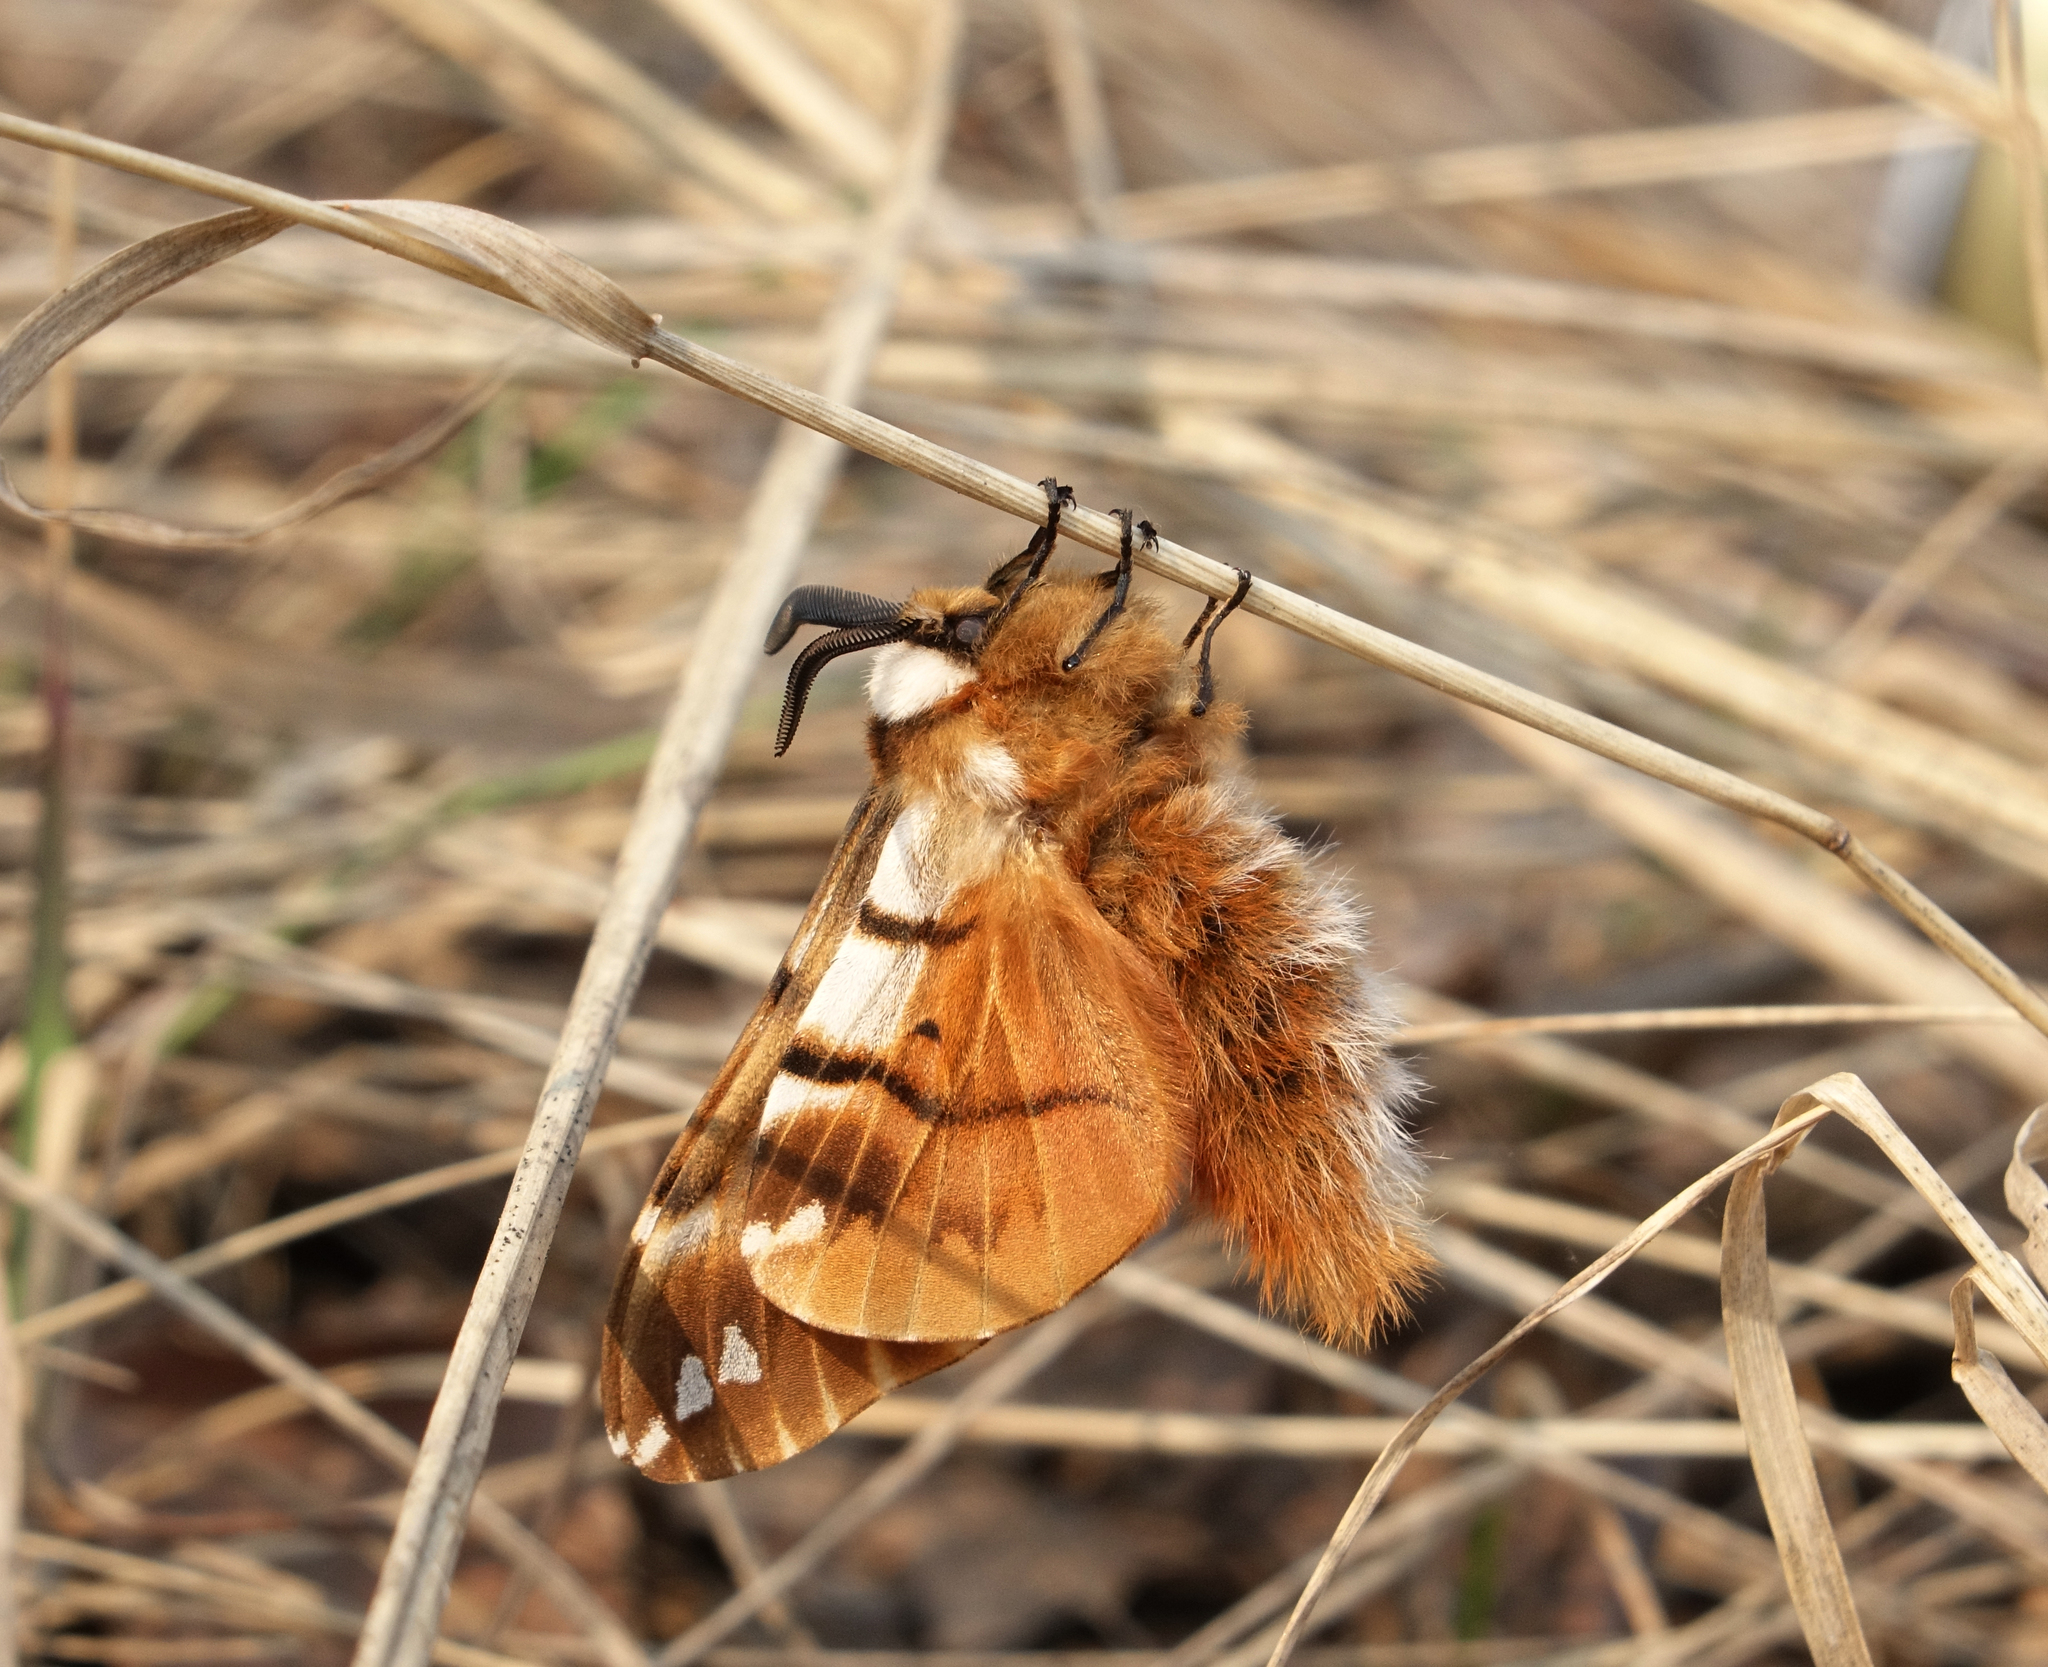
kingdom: Animalia
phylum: Arthropoda
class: Insecta
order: Lepidoptera
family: Endromidae
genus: Endromis
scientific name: Endromis versicolora
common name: Kentish glory
